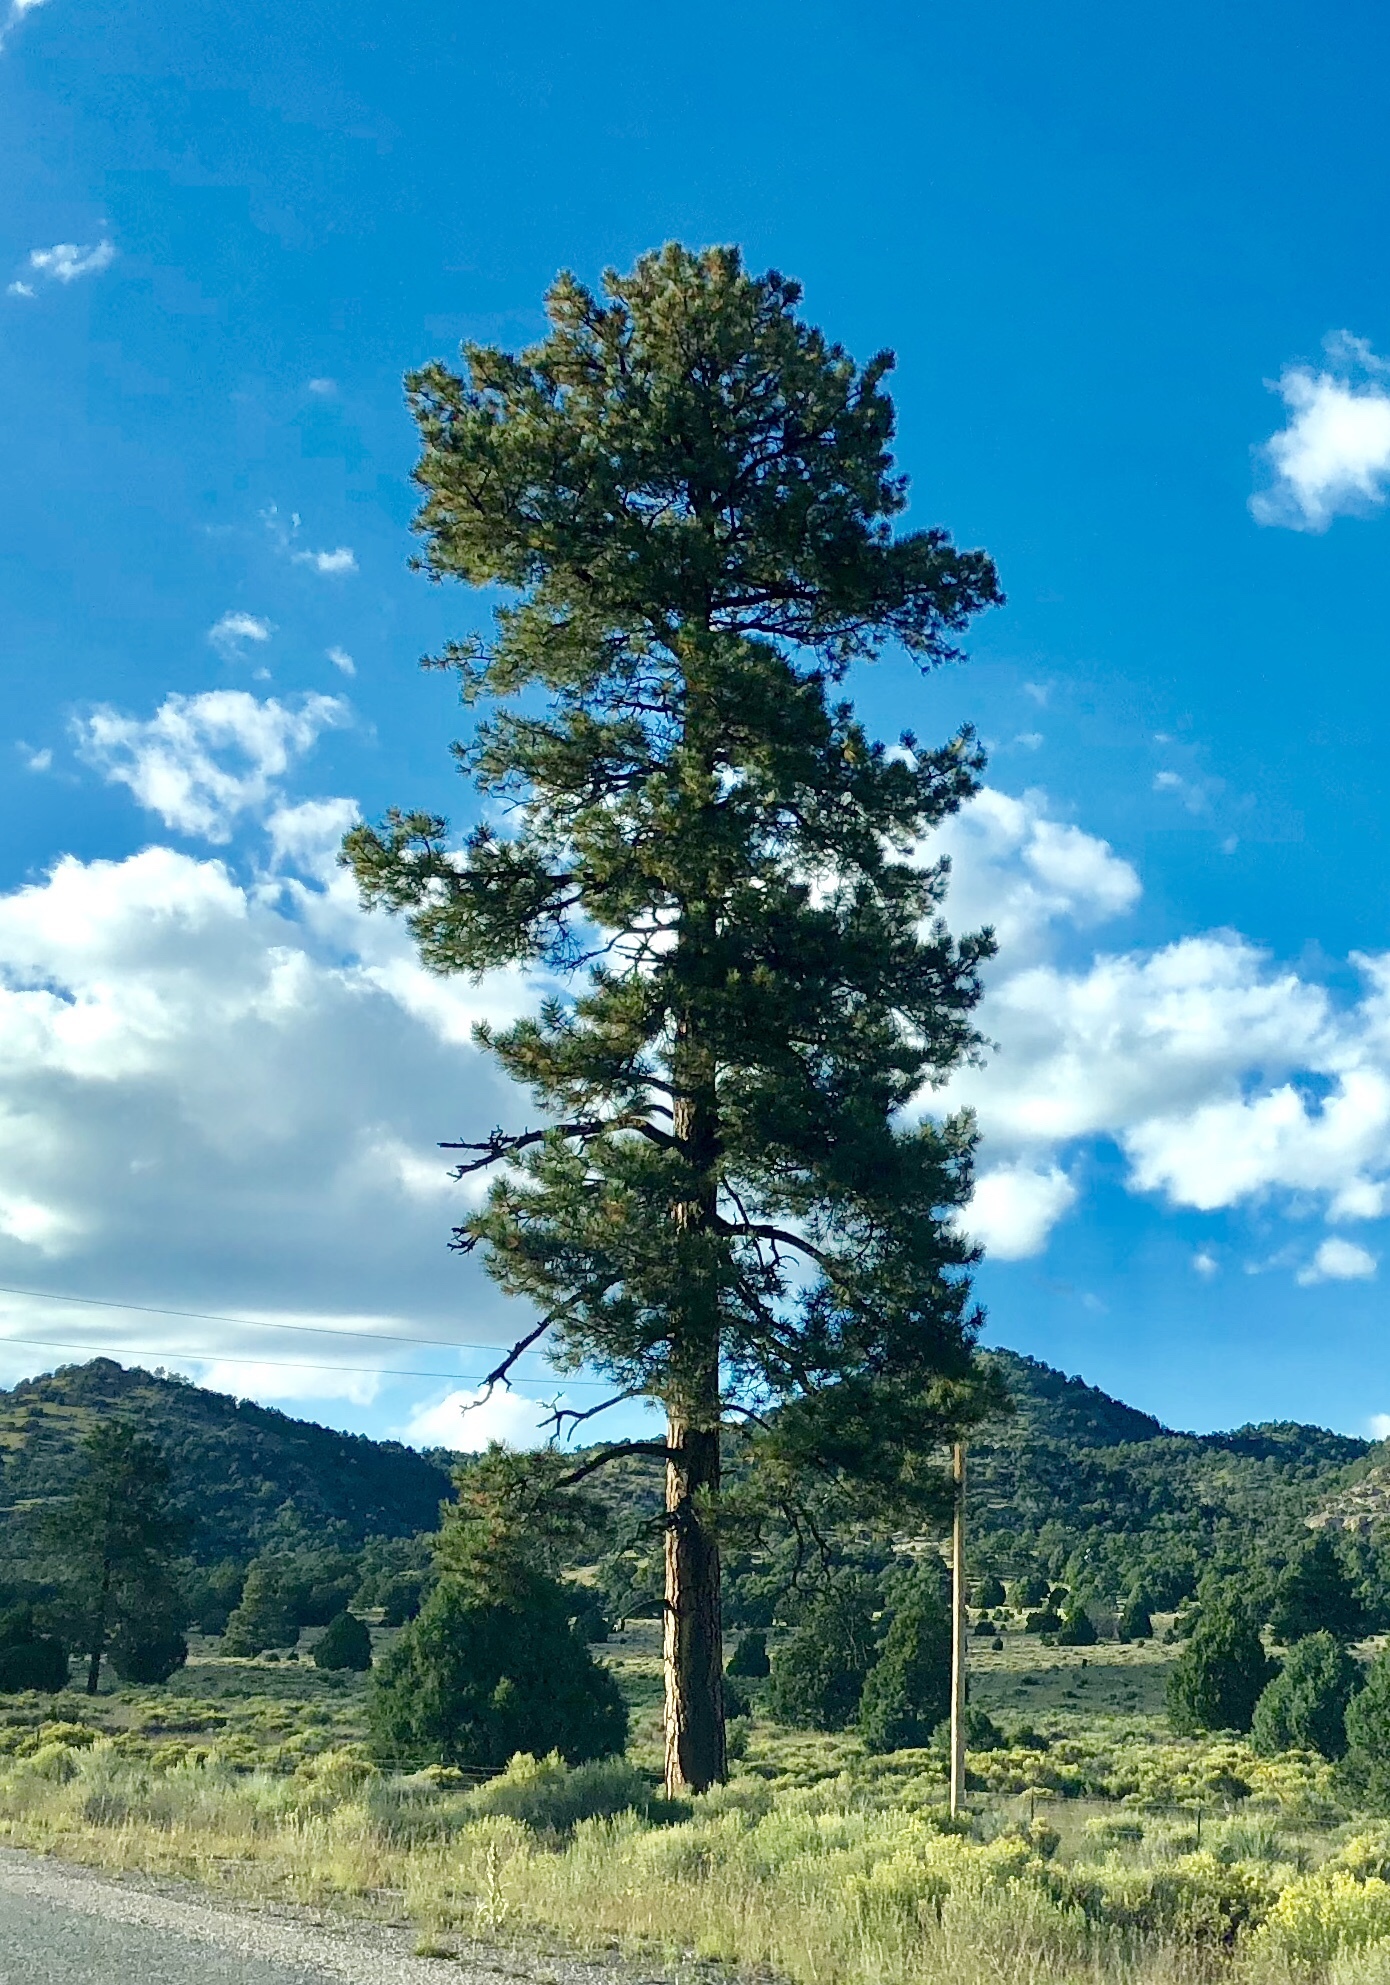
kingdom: Plantae
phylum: Tracheophyta
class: Pinopsida
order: Pinales
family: Pinaceae
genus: Pinus
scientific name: Pinus ponderosa
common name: Western yellow-pine
